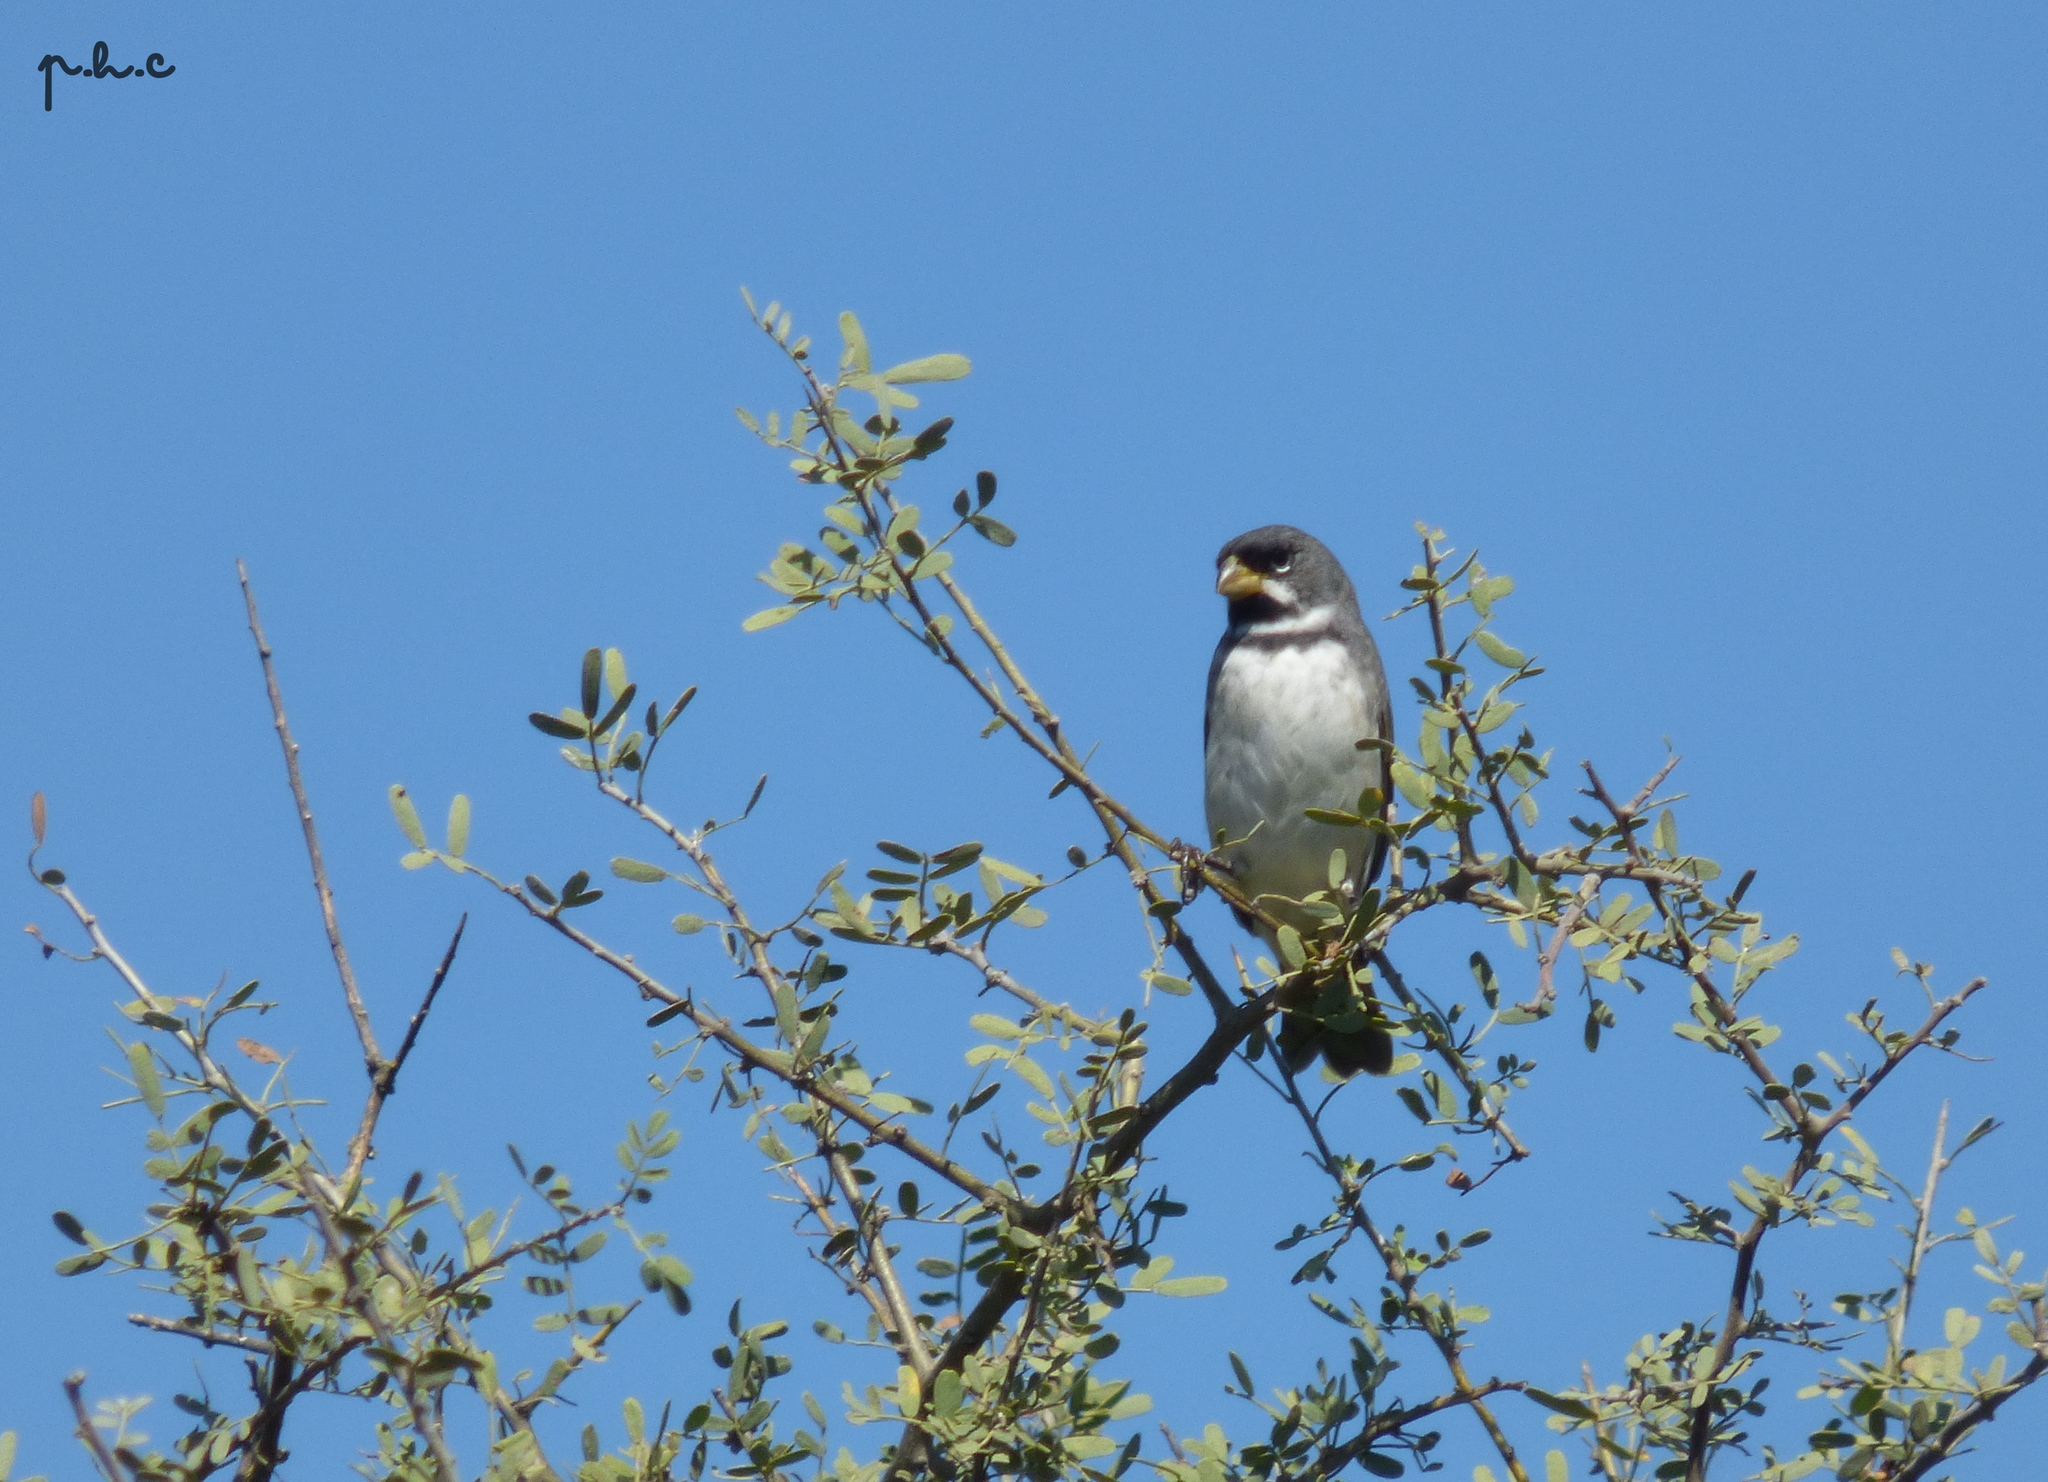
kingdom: Animalia
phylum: Chordata
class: Aves
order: Passeriformes
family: Thraupidae
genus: Sporophila
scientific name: Sporophila caerulescens
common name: Double-collared seedeater
